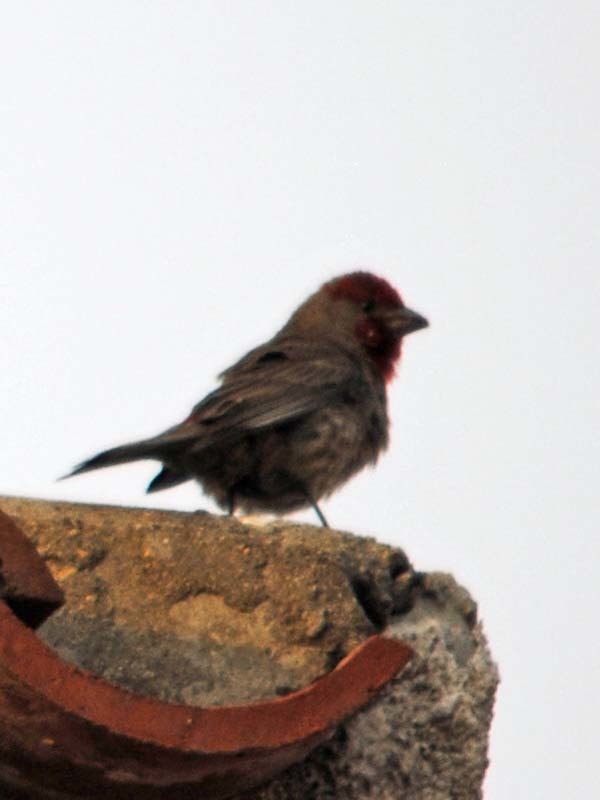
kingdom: Animalia
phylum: Chordata
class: Aves
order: Passeriformes
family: Fringillidae
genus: Haemorhous
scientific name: Haemorhous mexicanus
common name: House finch
